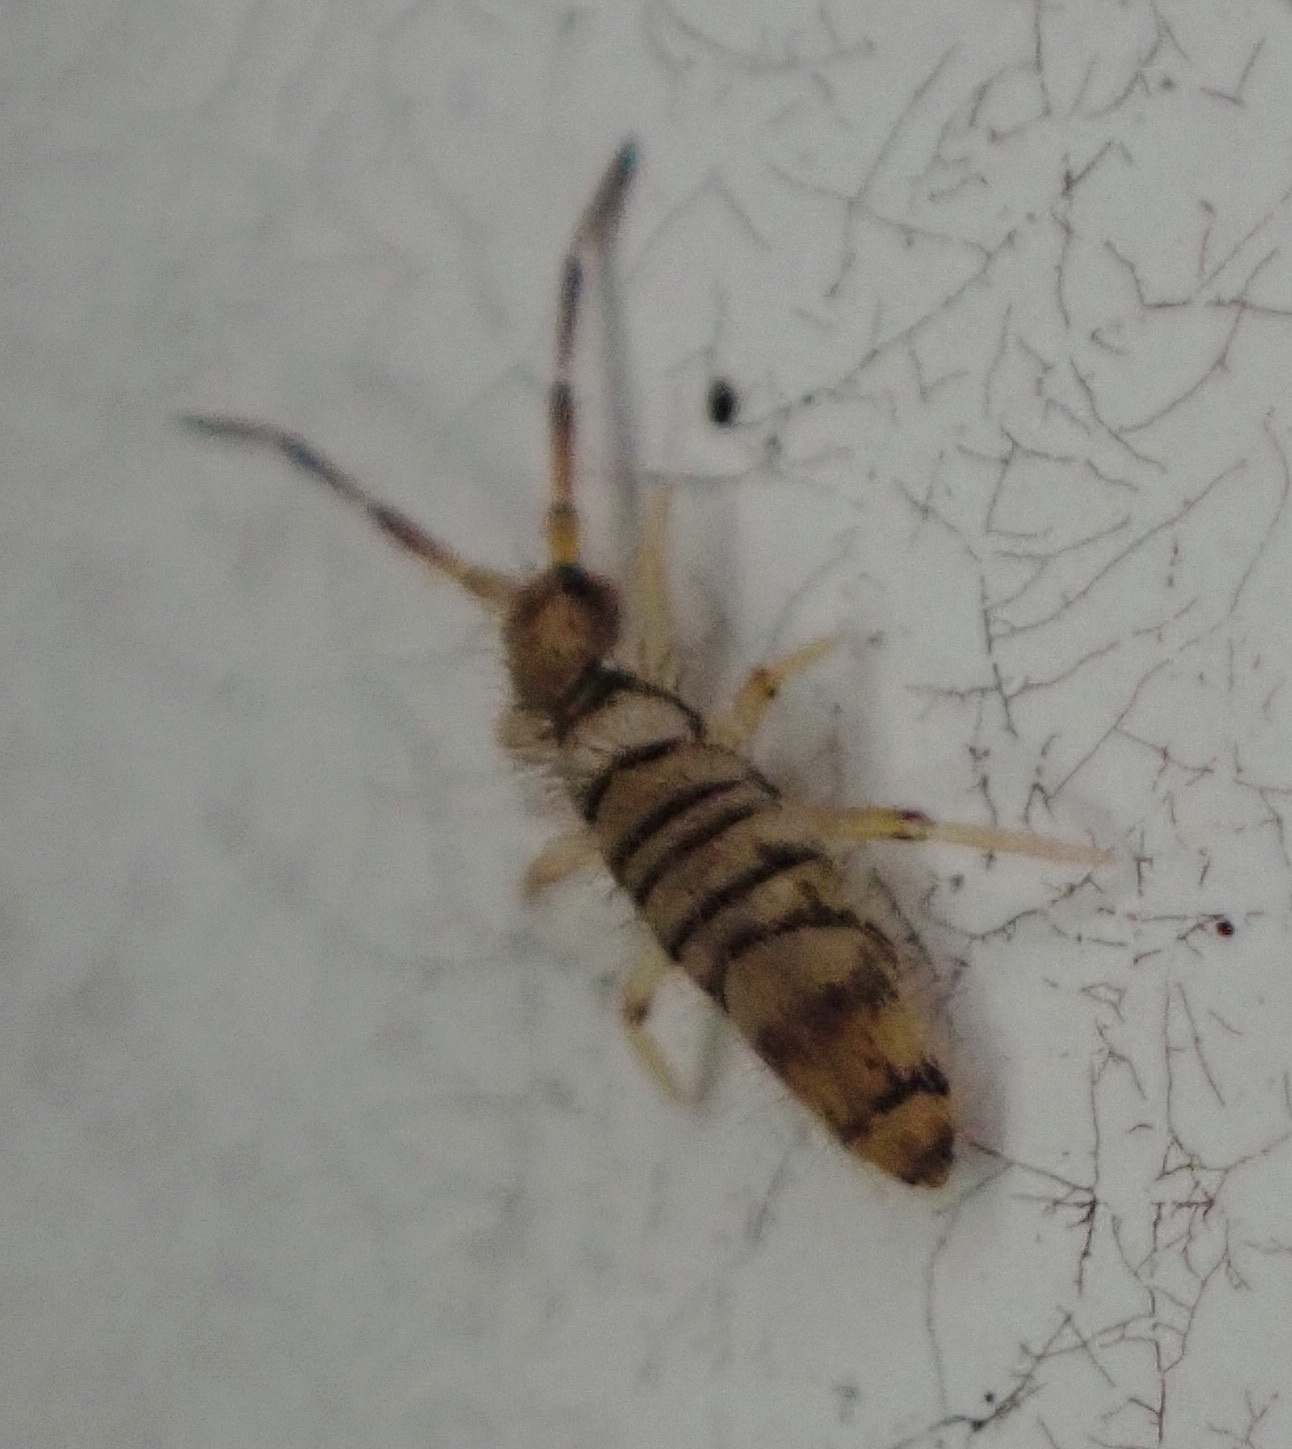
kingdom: Animalia
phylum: Arthropoda
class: Collembola
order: Entomobryomorpha
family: Entomobryidae
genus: Entomobrya
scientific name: Entomobrya atrocincta
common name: Springtail
